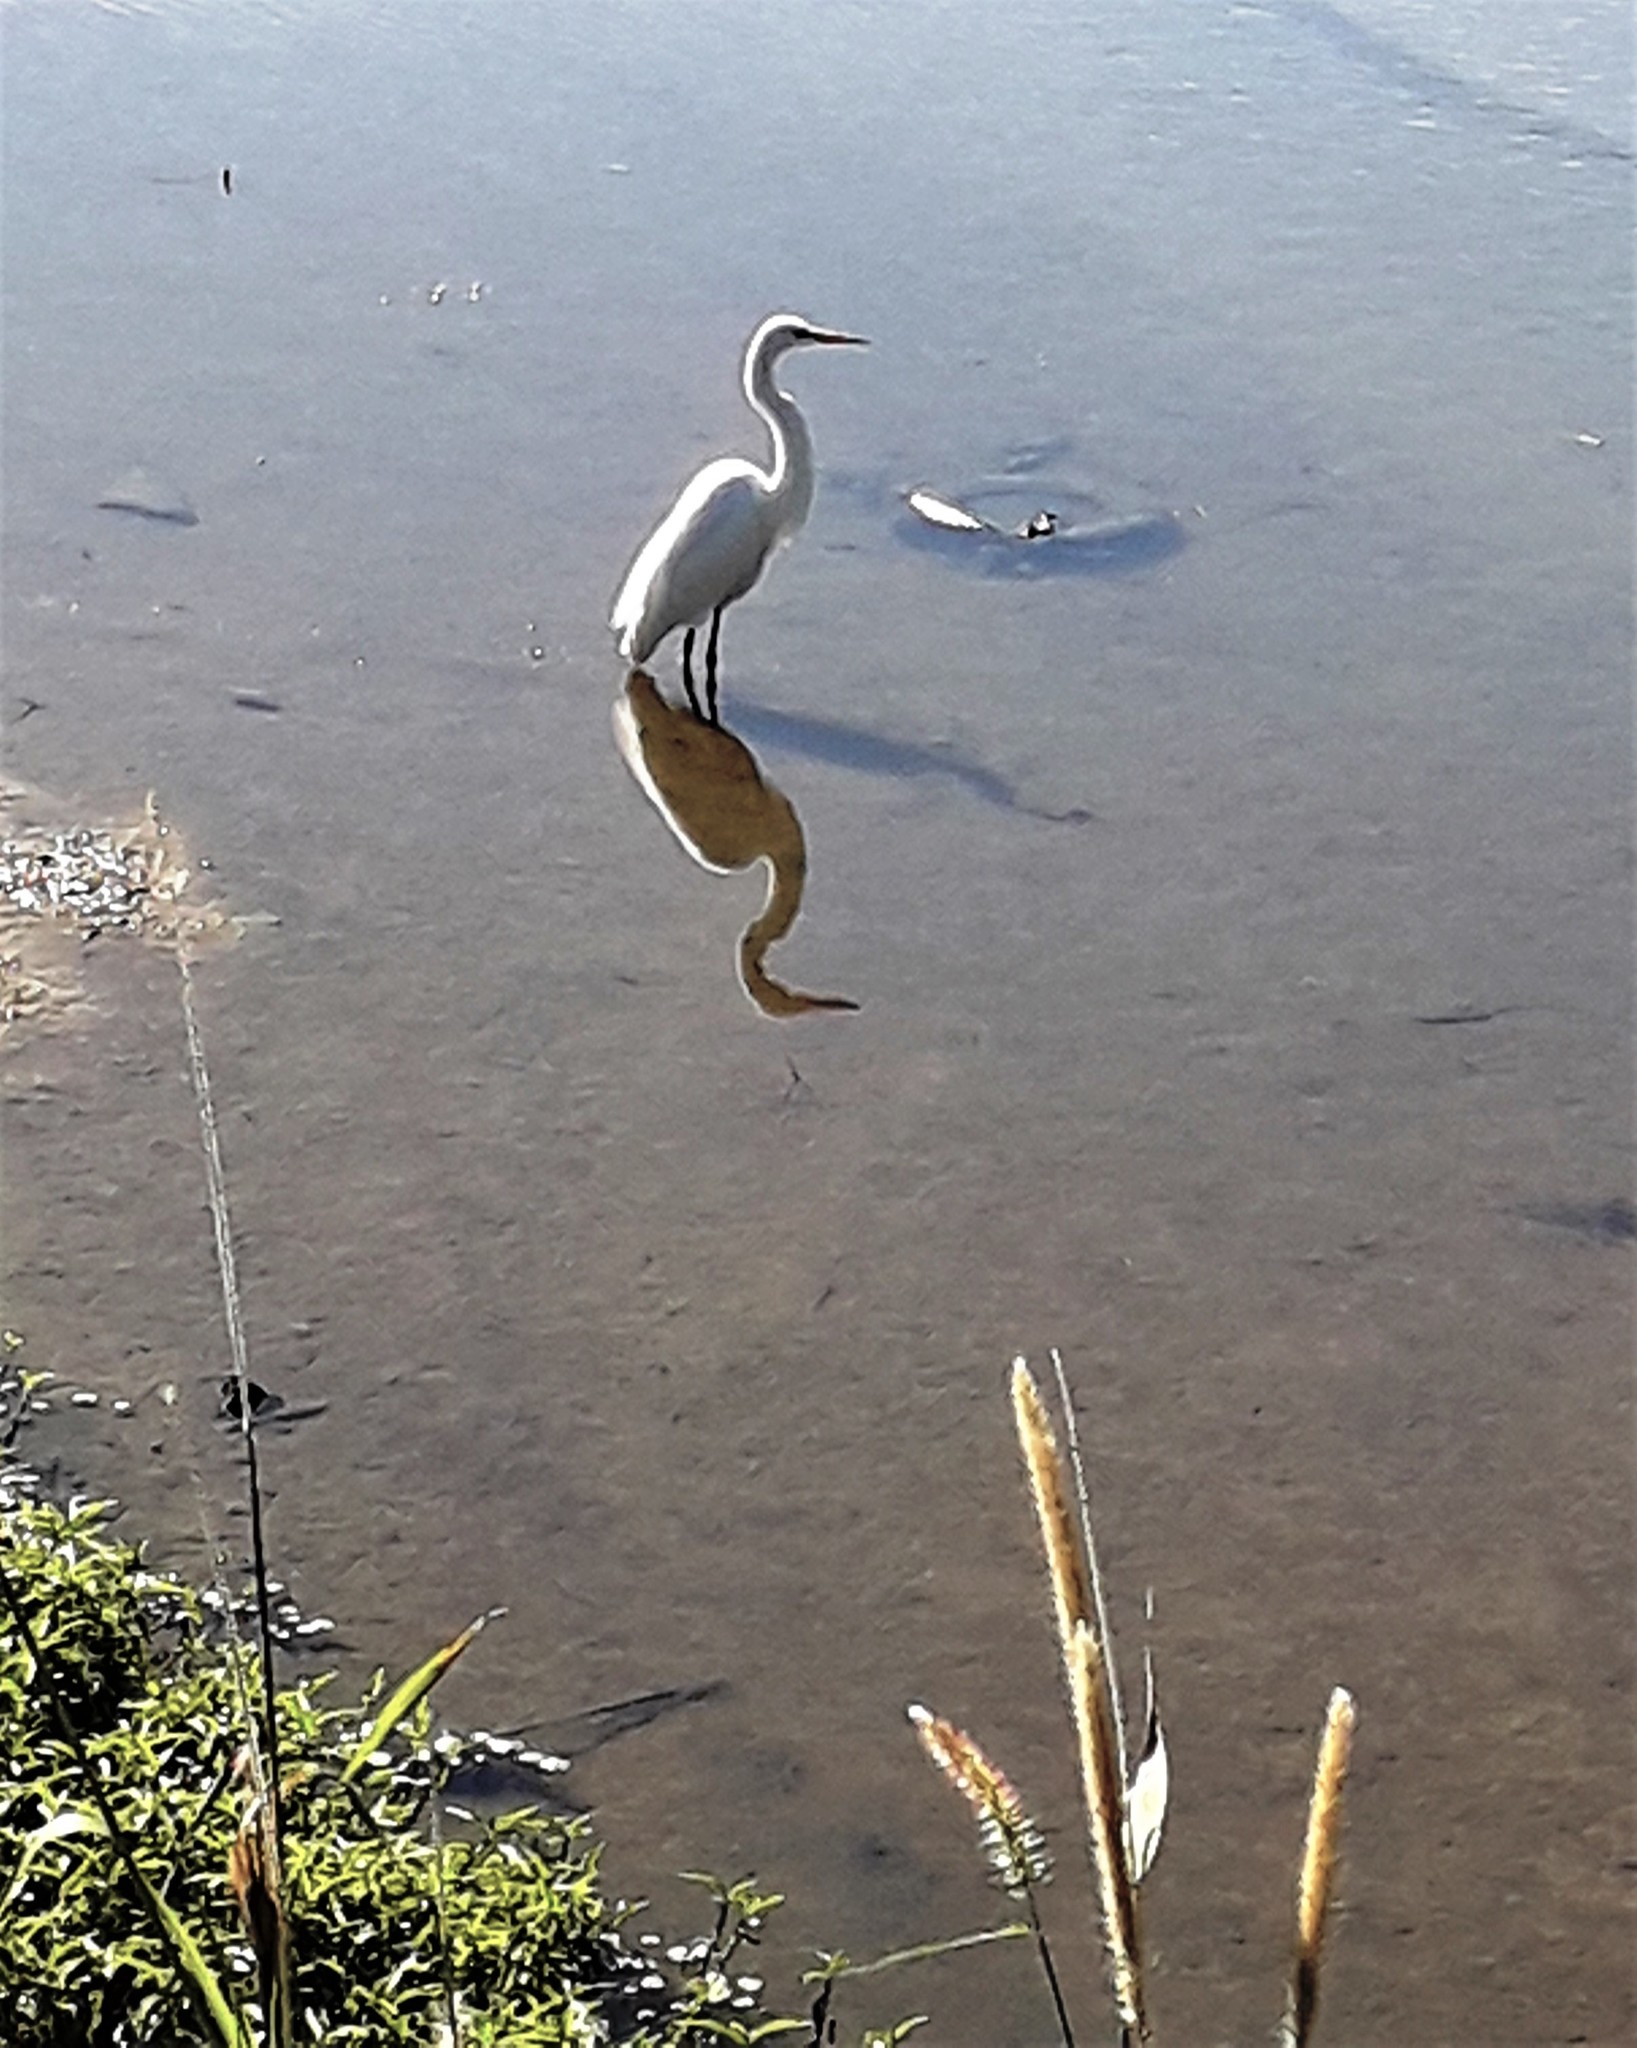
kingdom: Animalia
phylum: Chordata
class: Aves
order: Pelecaniformes
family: Ardeidae
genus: Ardea
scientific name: Ardea alba
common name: Great egret
